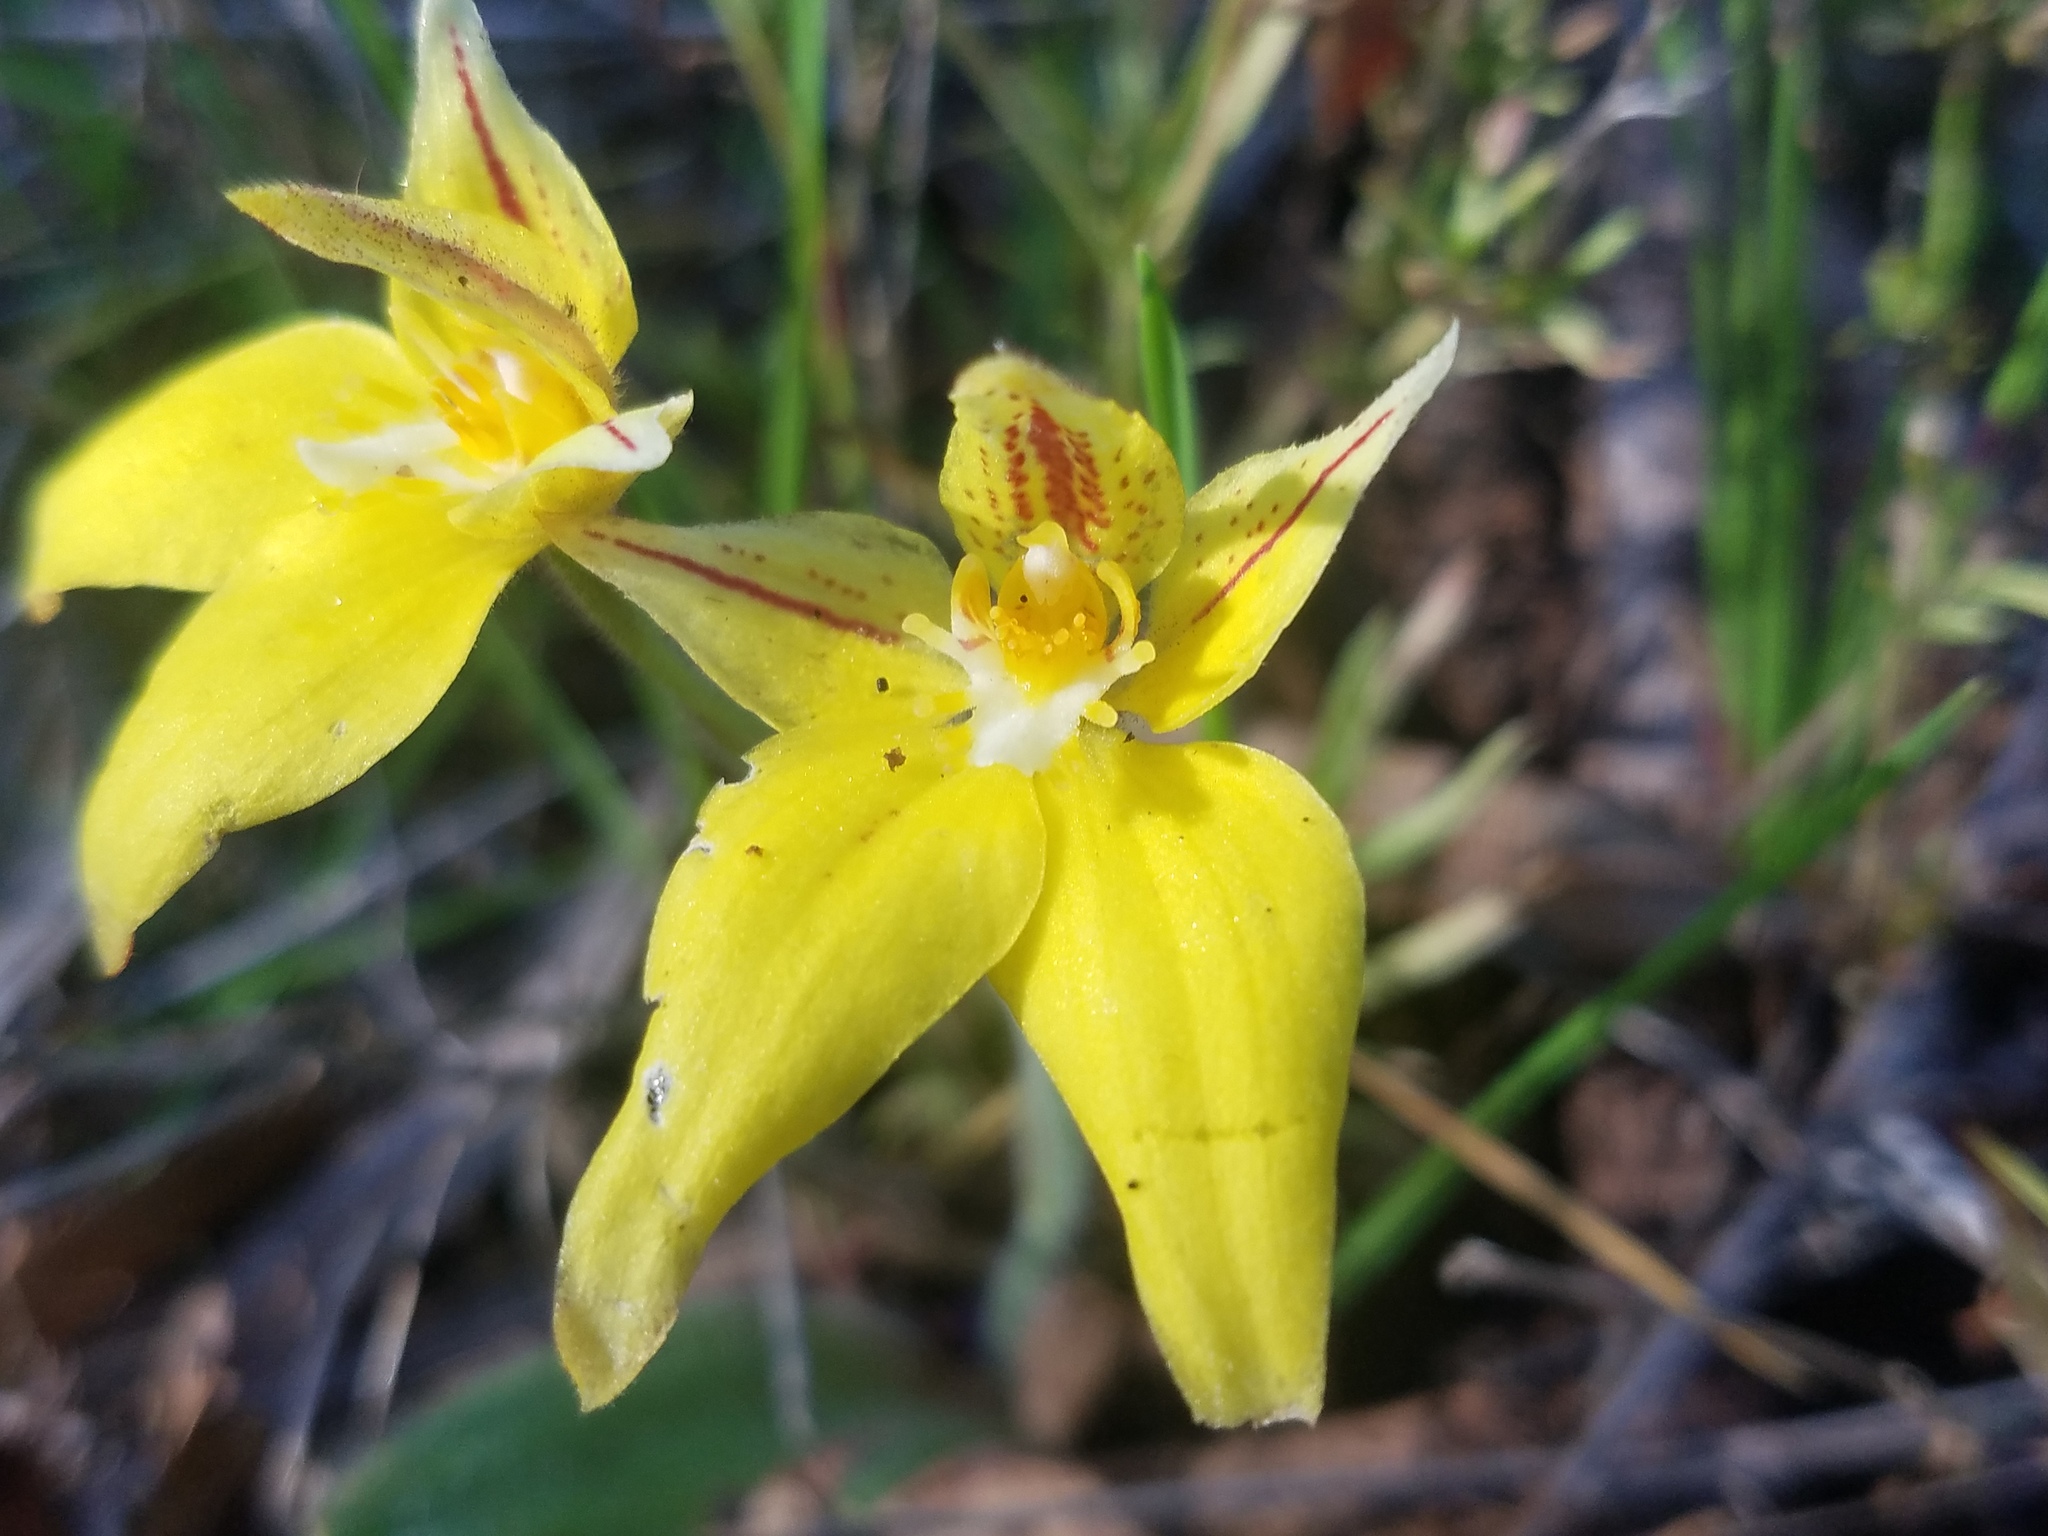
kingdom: Plantae
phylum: Tracheophyta
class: Liliopsida
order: Asparagales
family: Orchidaceae
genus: Caladenia
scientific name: Caladenia flava
